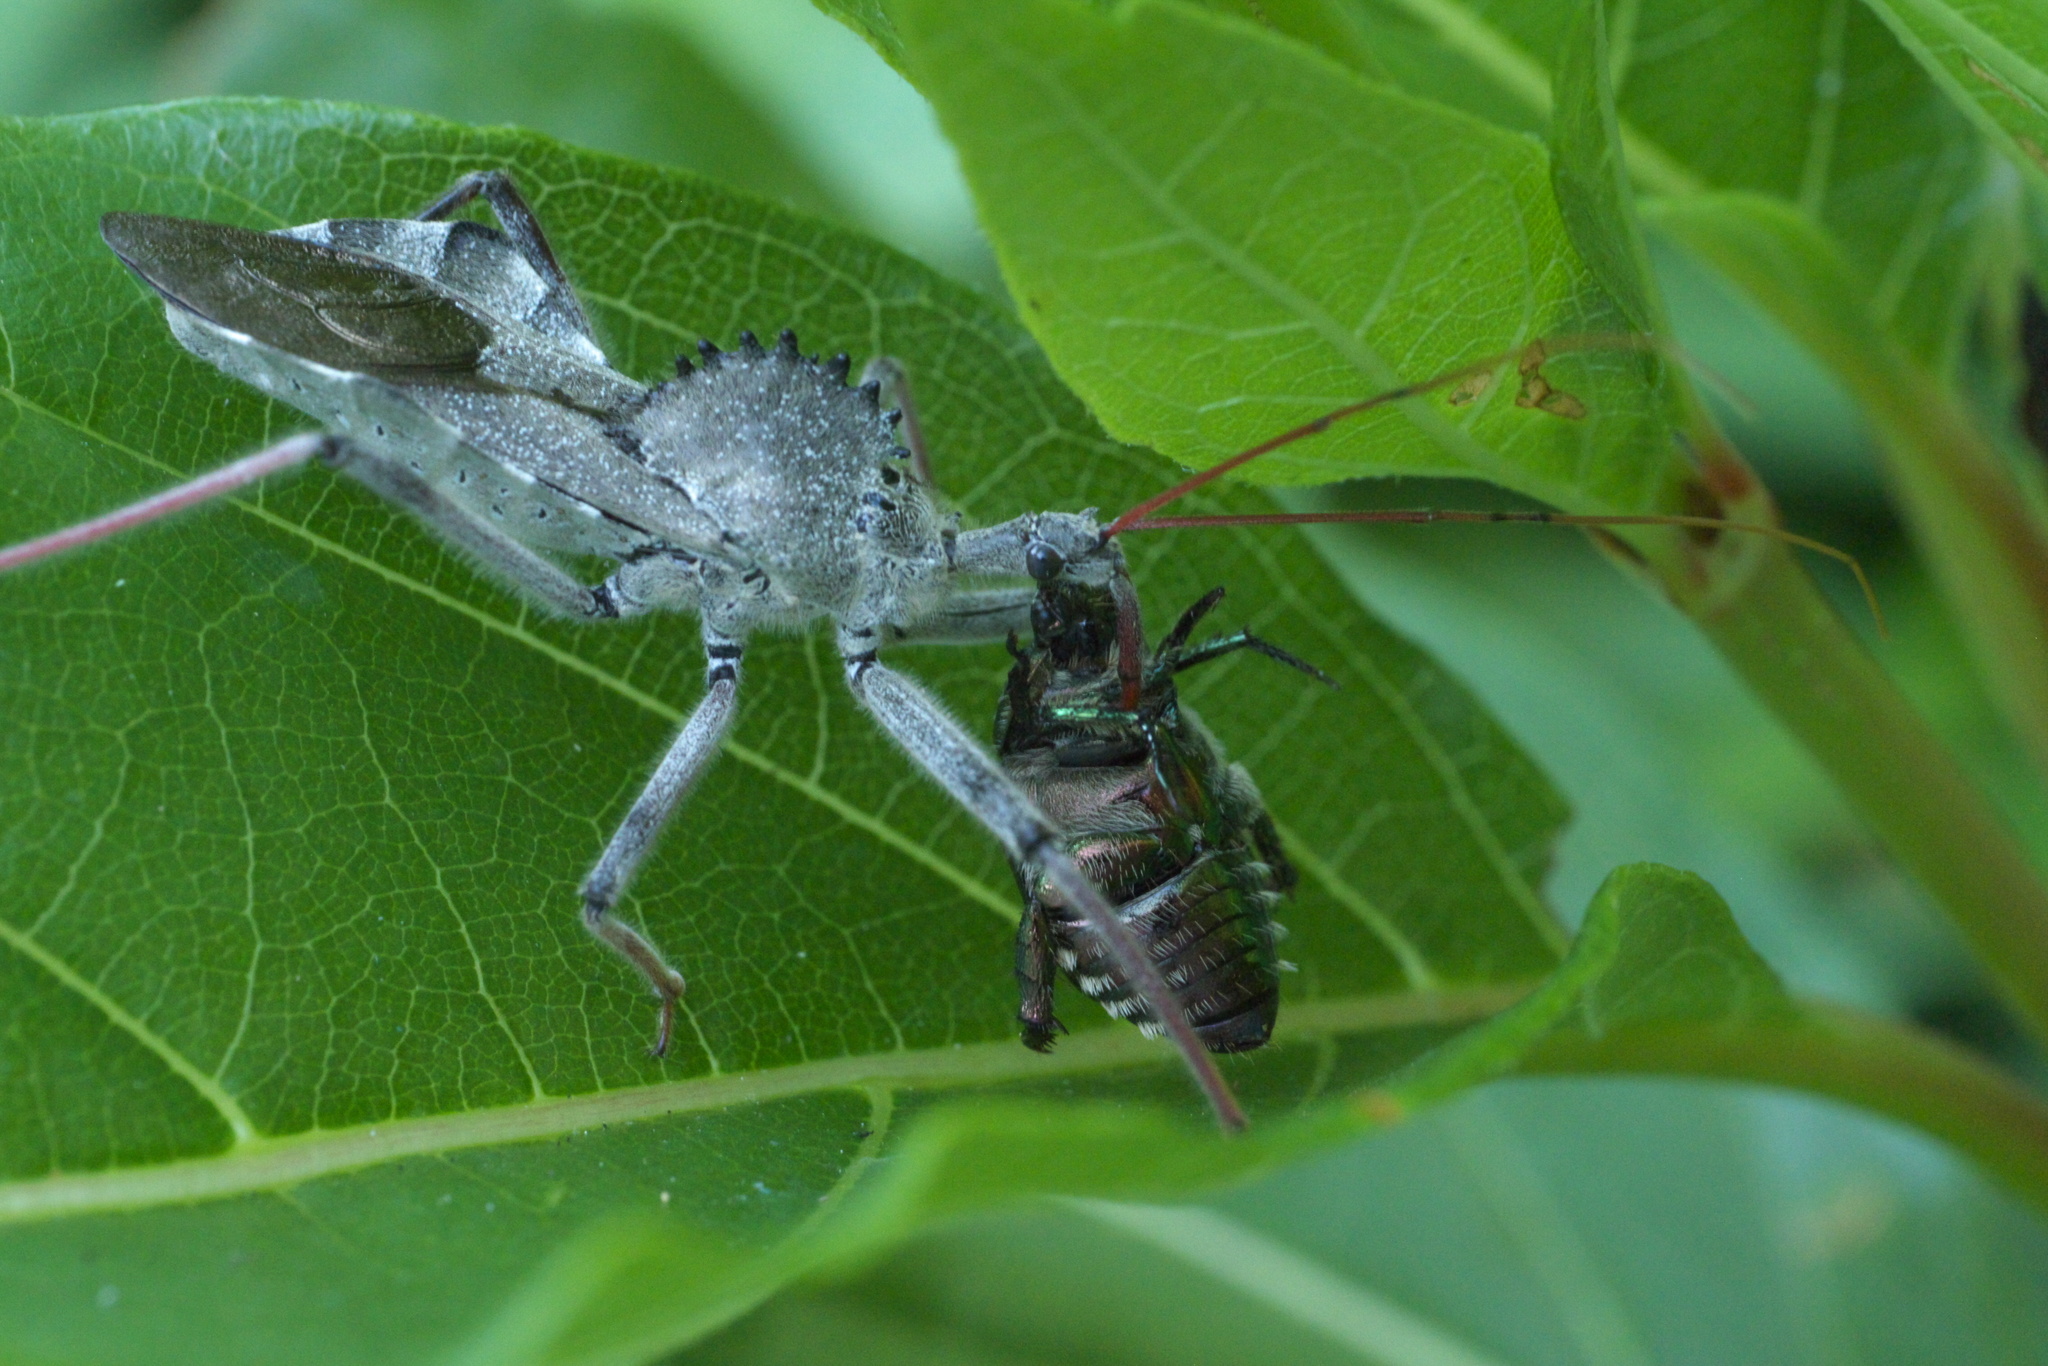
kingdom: Animalia
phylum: Arthropoda
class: Insecta
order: Hemiptera
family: Reduviidae
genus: Arilus
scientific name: Arilus cristatus
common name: North american wheel bug
